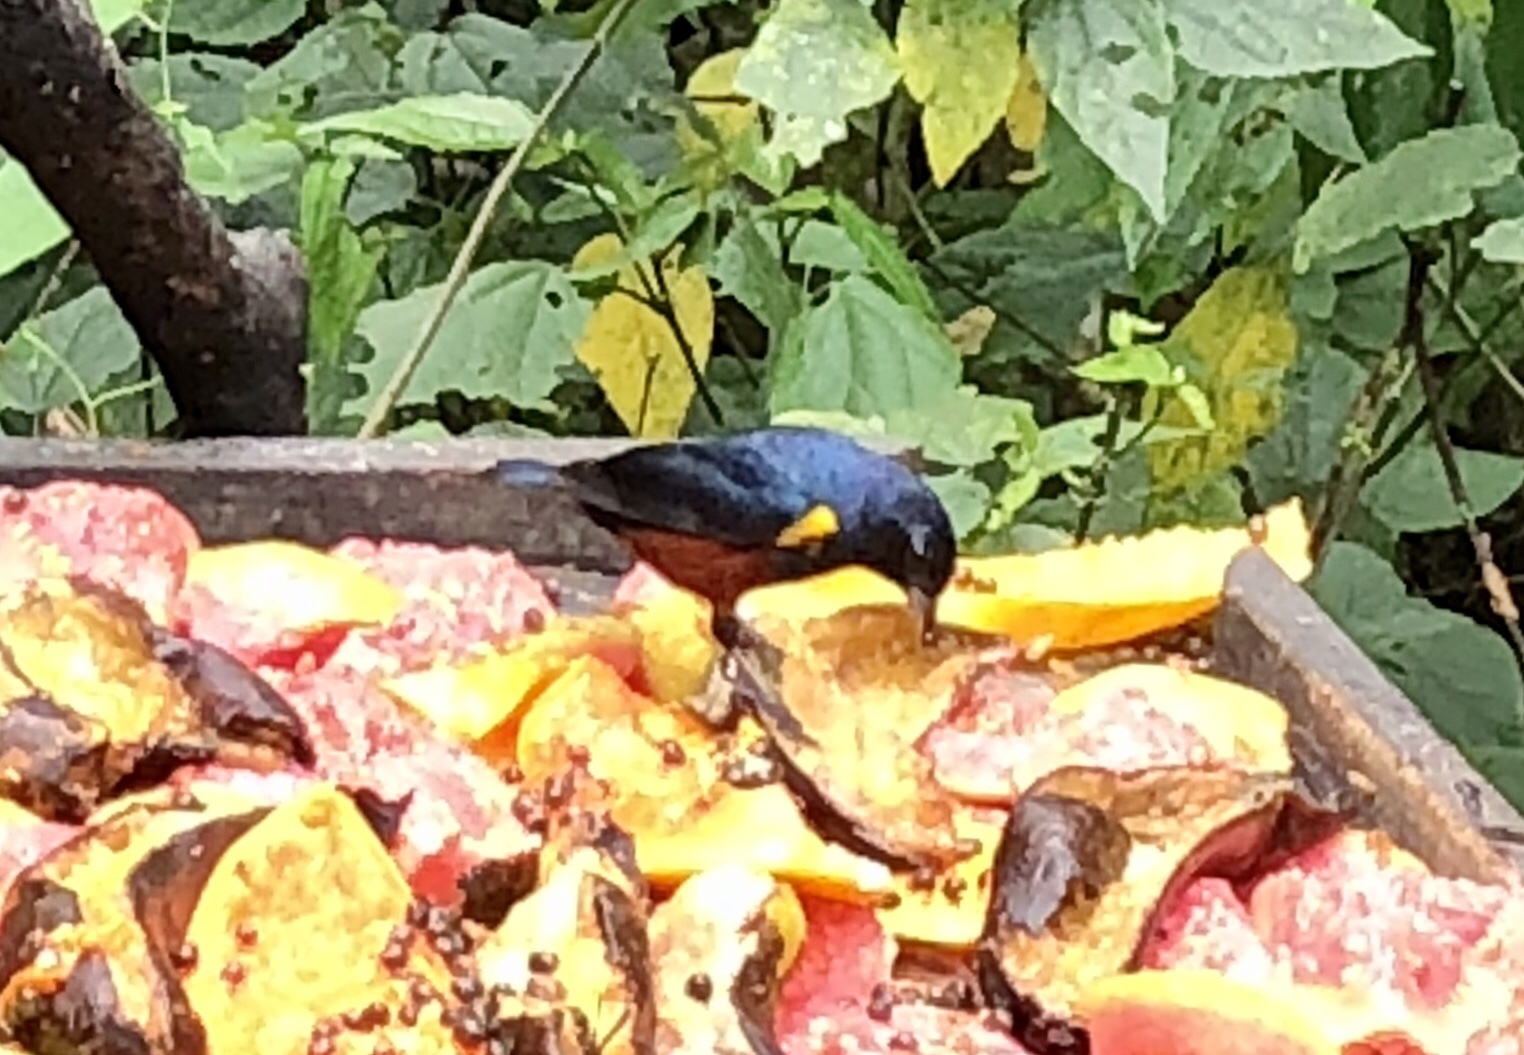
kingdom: Animalia
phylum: Chordata
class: Aves
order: Passeriformes
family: Fringillidae
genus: Euphonia
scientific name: Euphonia pectoralis
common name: Chestnut-bellied euphonia
